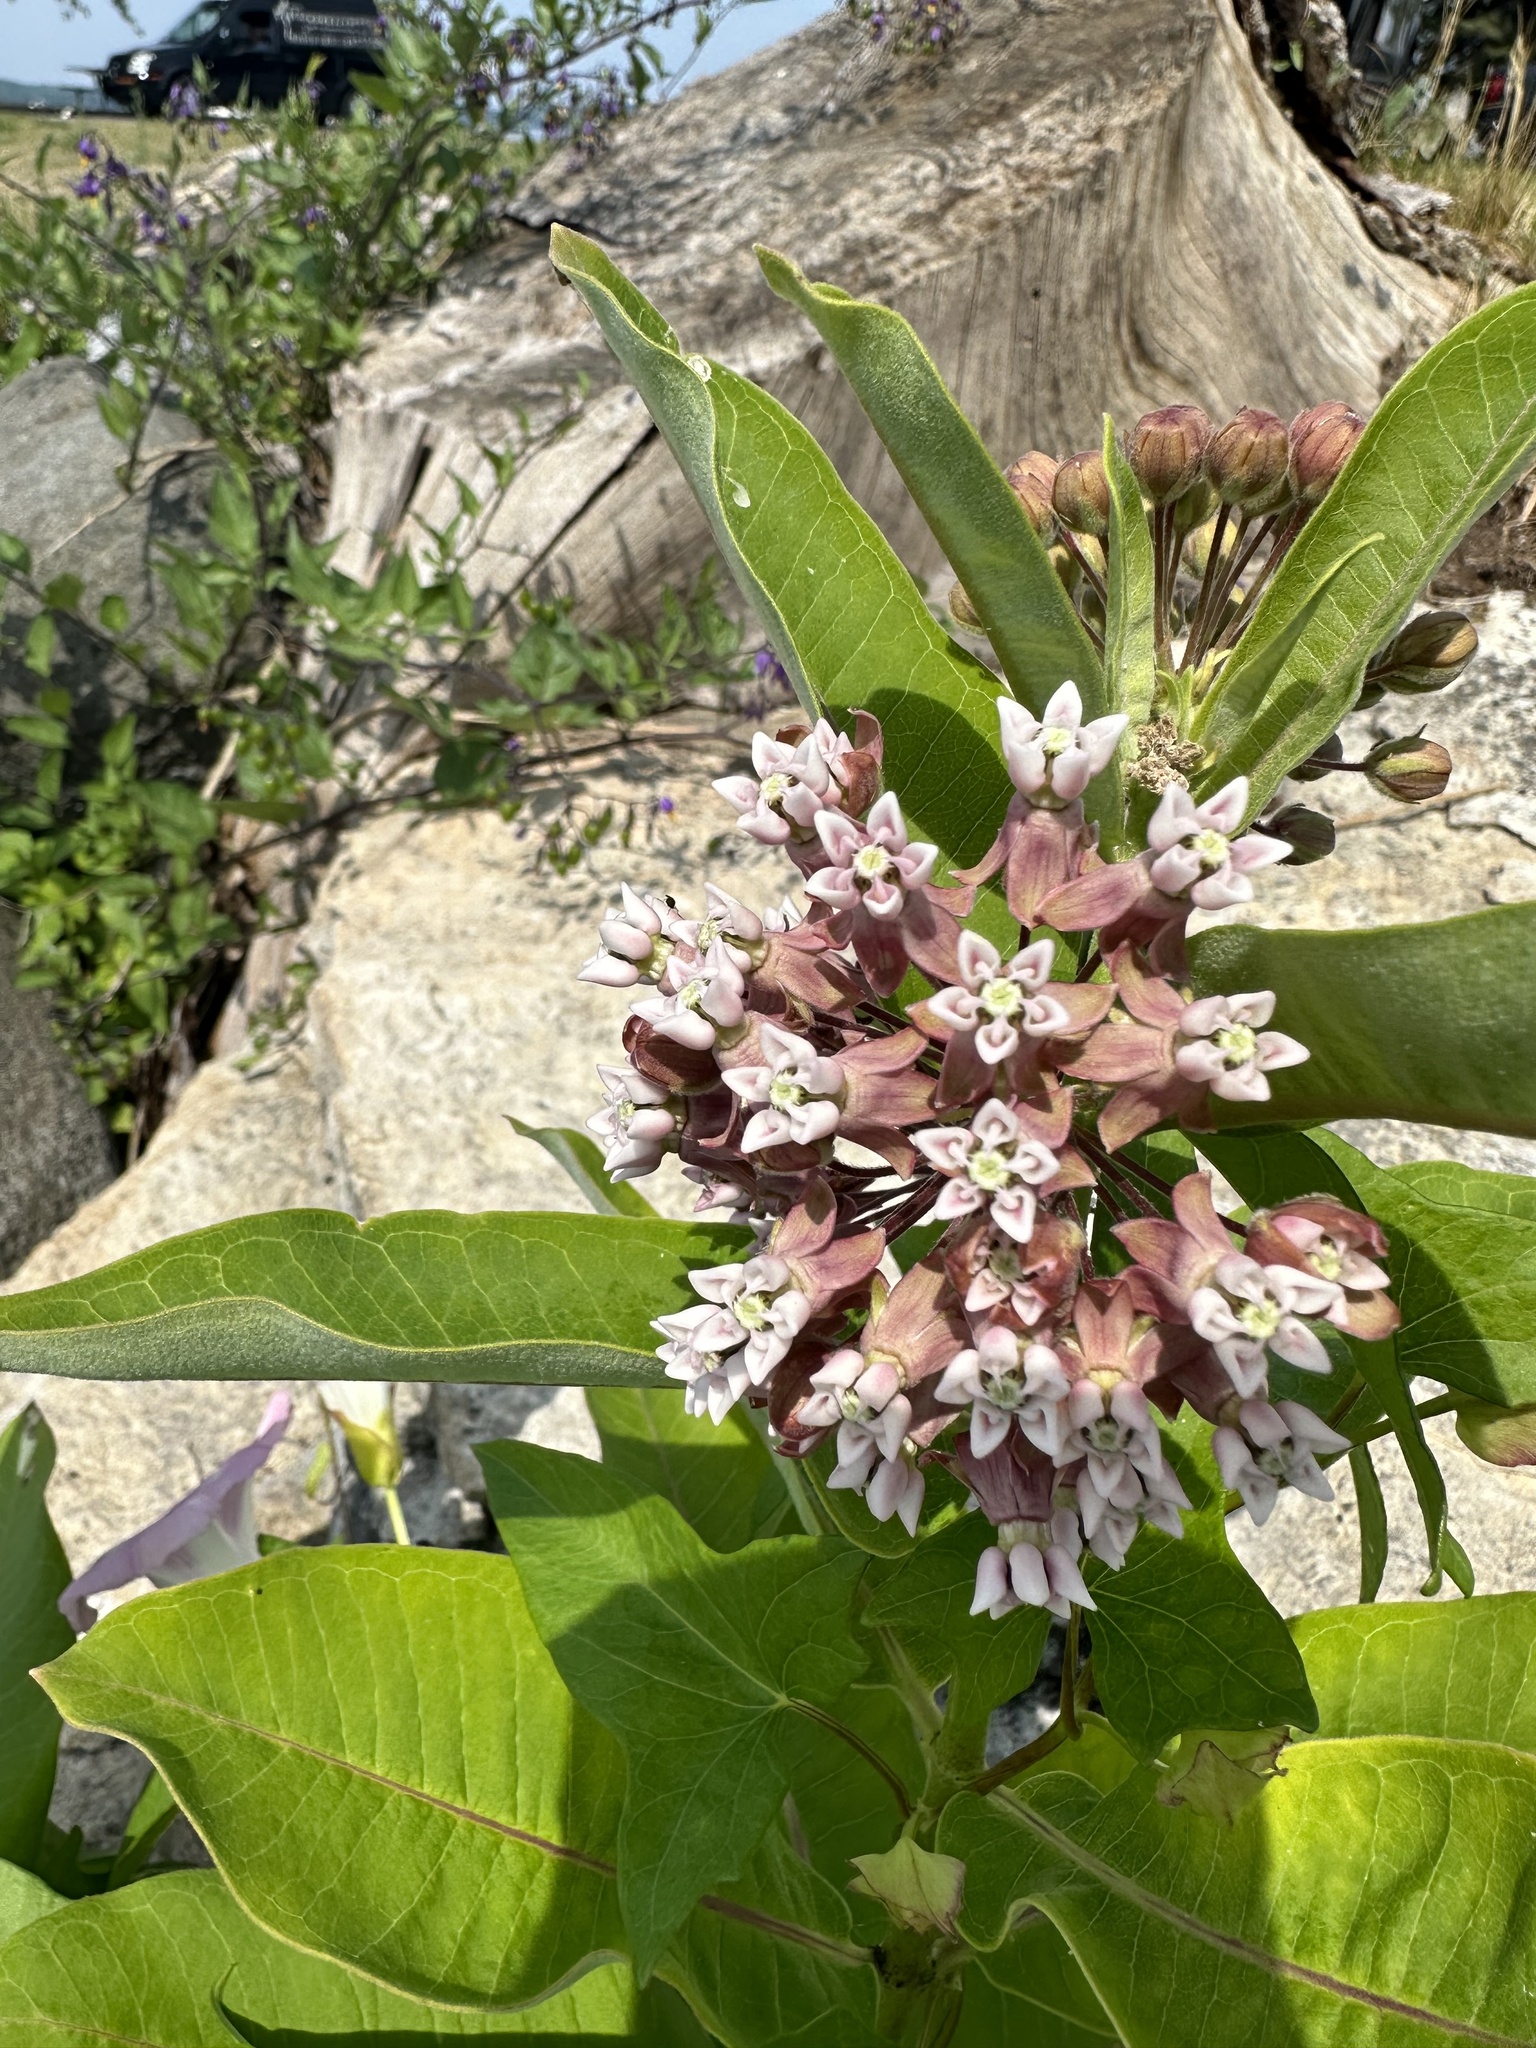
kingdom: Plantae
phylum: Tracheophyta
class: Magnoliopsida
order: Gentianales
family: Apocynaceae
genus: Asclepias
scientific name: Asclepias syriaca
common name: Common milkweed
